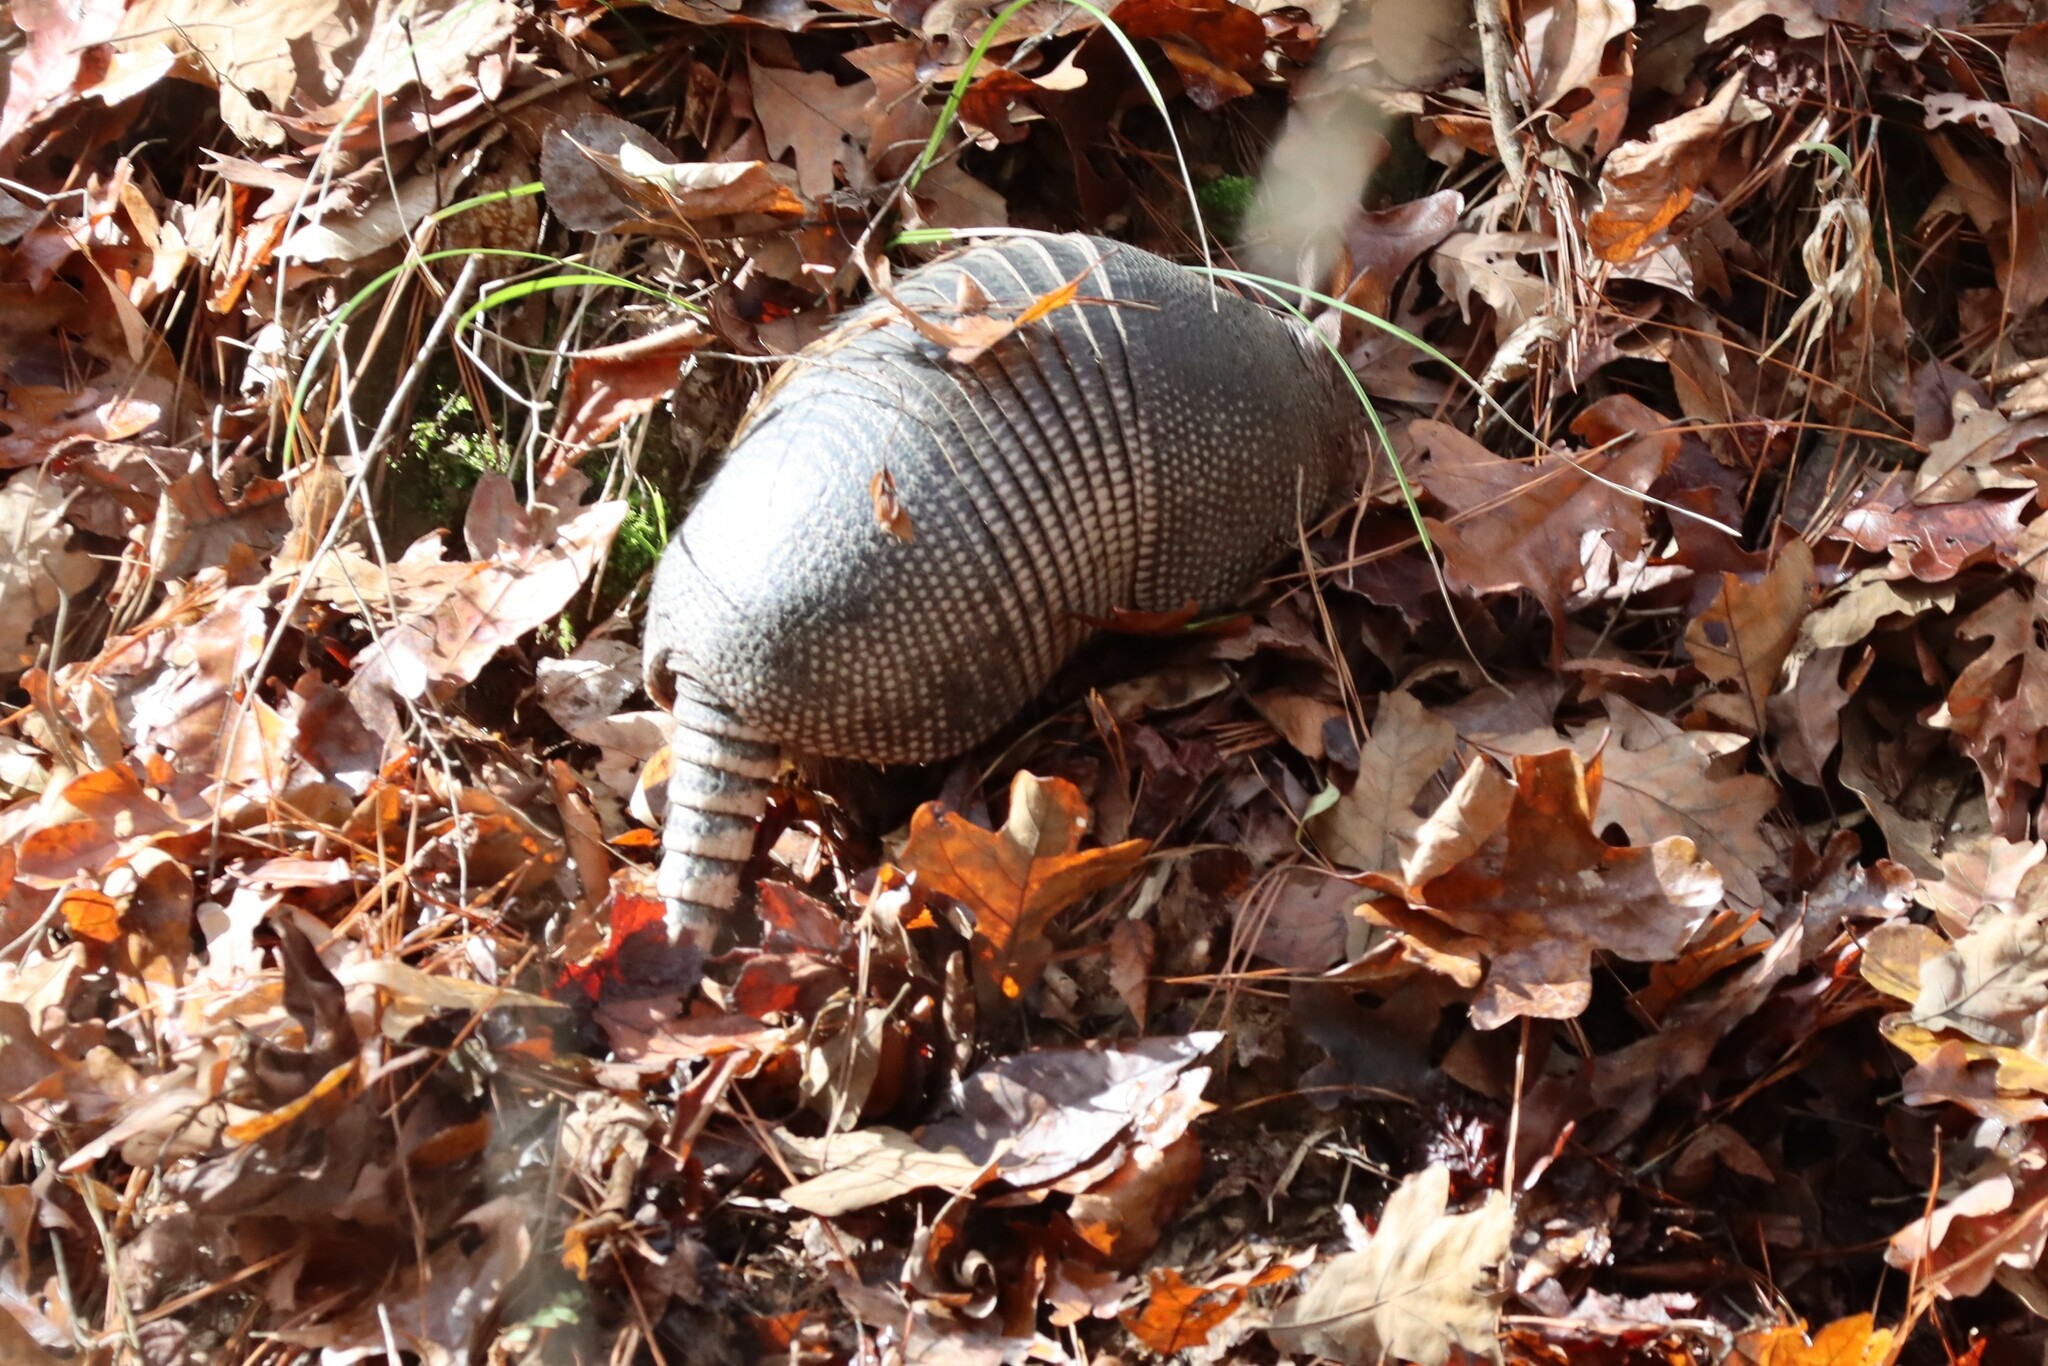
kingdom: Animalia
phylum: Chordata
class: Mammalia
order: Cingulata
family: Dasypodidae
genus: Dasypus
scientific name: Dasypus novemcinctus
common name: Nine-banded armadillo
